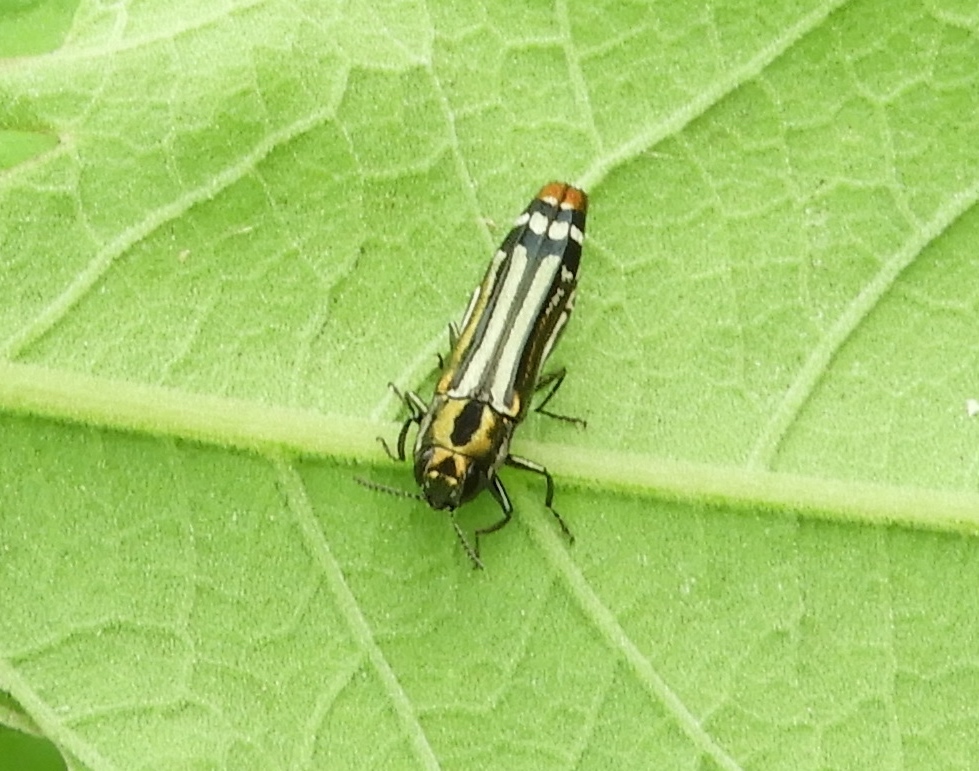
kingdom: Animalia
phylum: Arthropoda
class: Insecta
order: Coleoptera
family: Buprestidae
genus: Agrilus
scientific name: Agrilus catherinae
